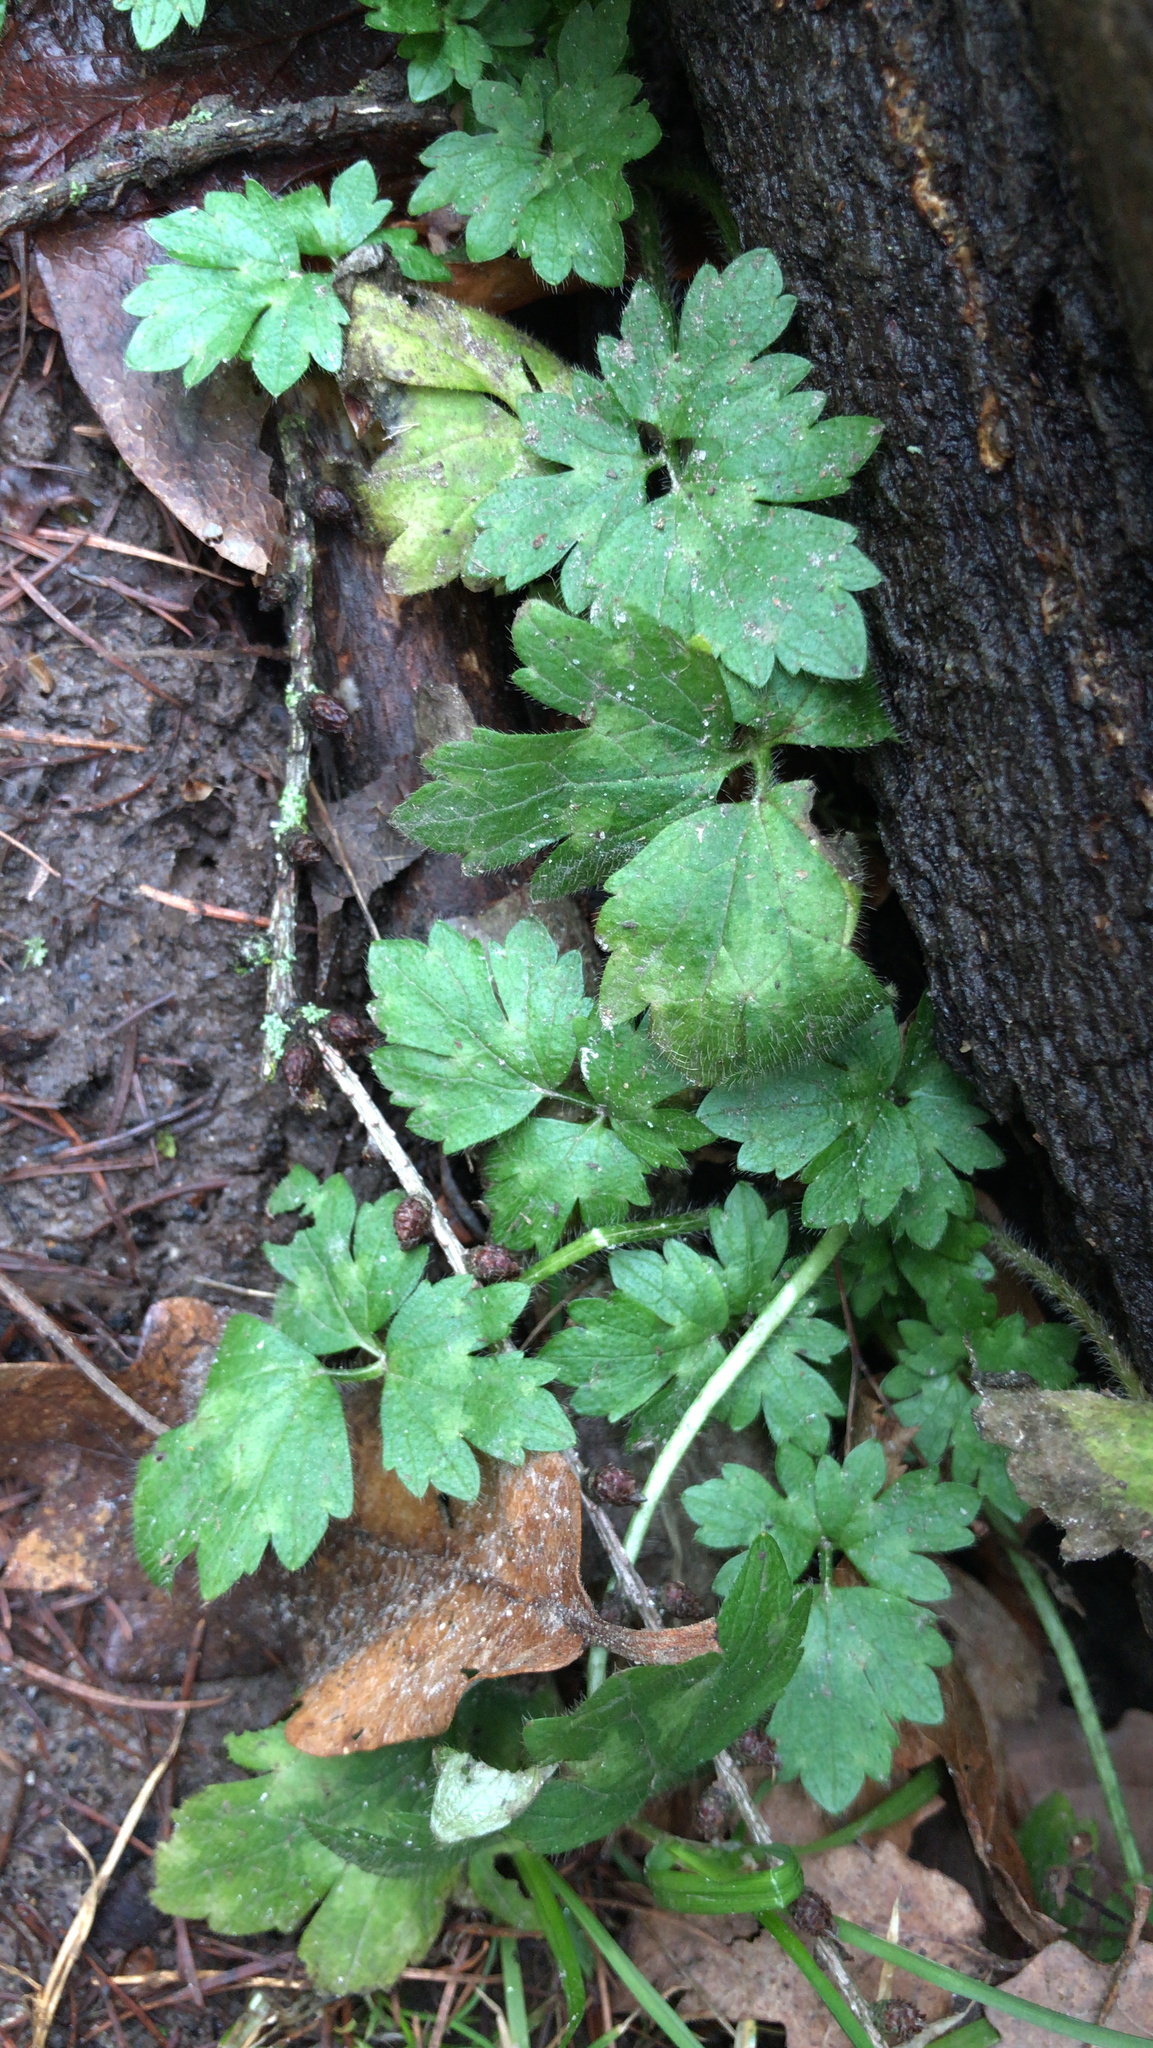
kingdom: Plantae
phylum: Tracheophyta
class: Magnoliopsida
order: Ranunculales
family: Ranunculaceae
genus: Ranunculus
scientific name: Ranunculus repens
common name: Creeping buttercup
